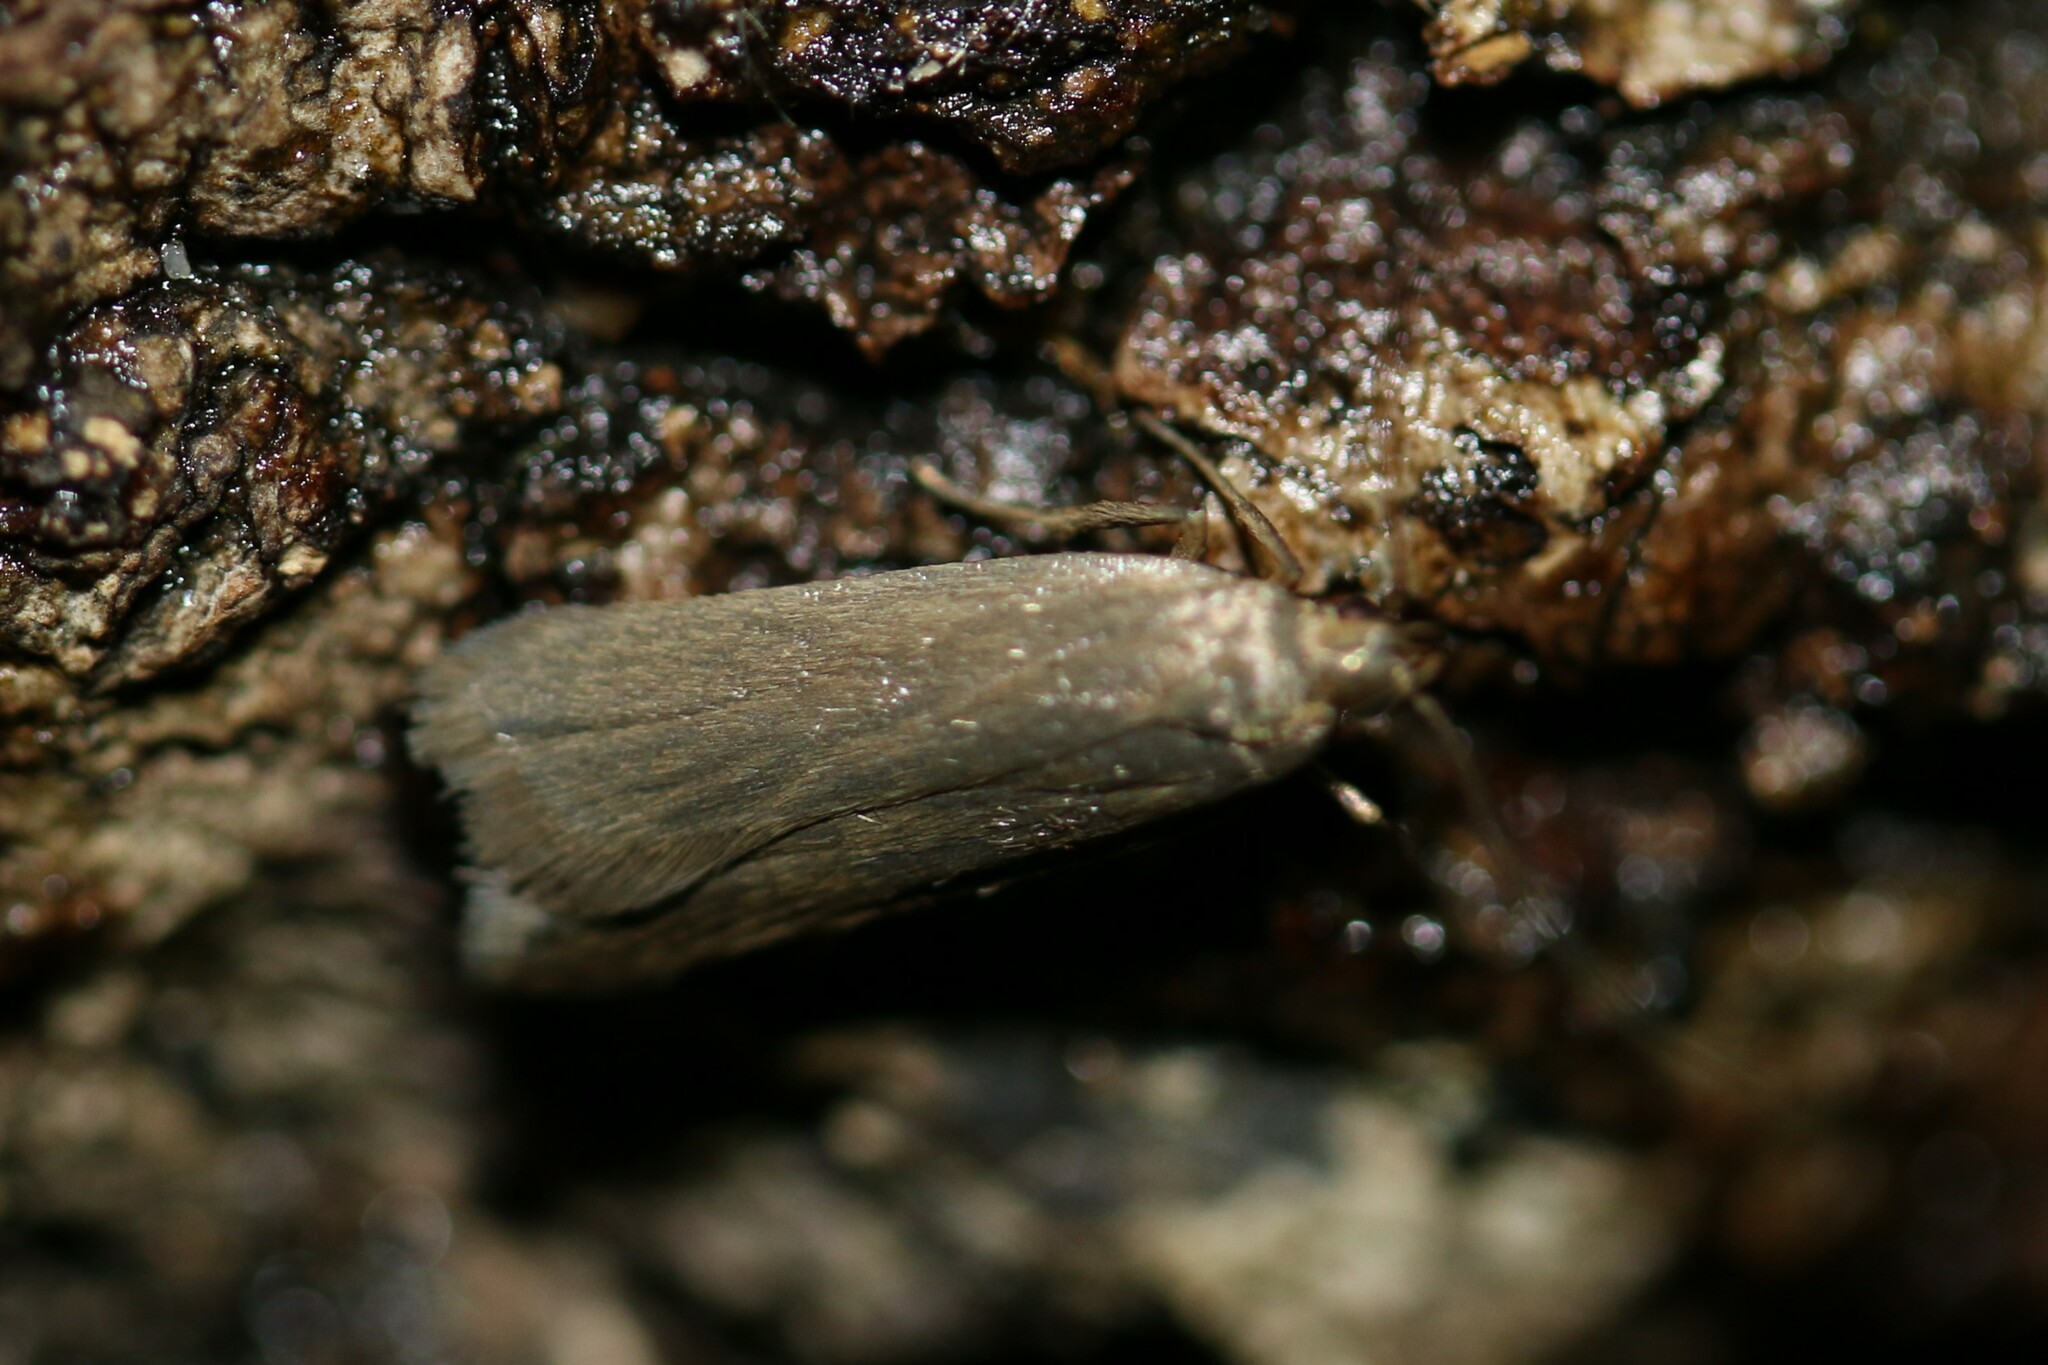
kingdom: Animalia
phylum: Arthropoda
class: Insecta
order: Lepidoptera
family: Gelechiidae
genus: Acompsia
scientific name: Acompsia cinerella
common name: Ash-coloured sober
